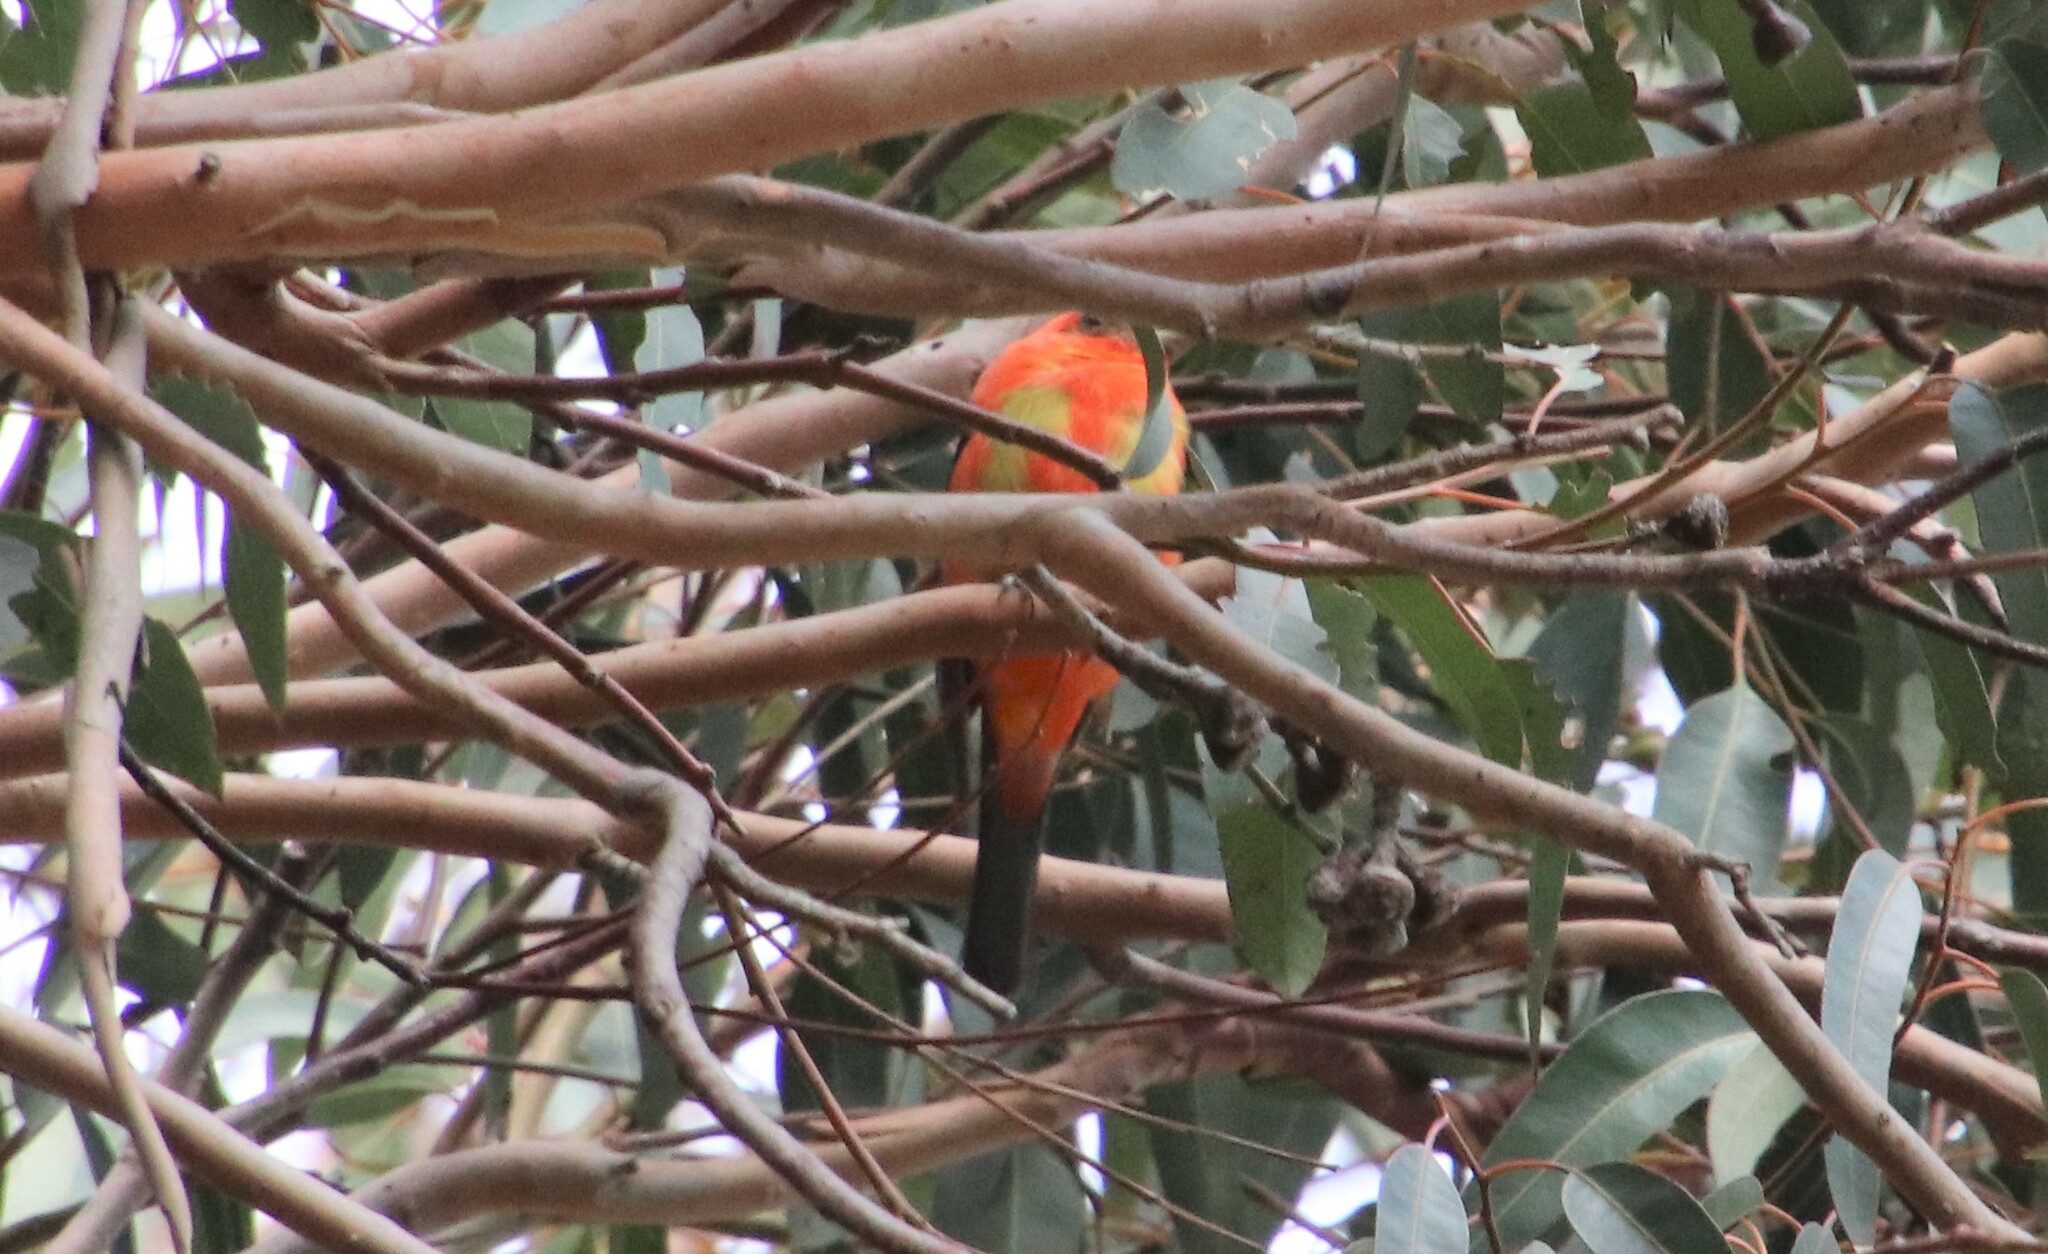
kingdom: Animalia
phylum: Chordata
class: Aves
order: Passeriformes
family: Cardinalidae
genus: Piranga
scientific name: Piranga olivacea
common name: Scarlet tanager
